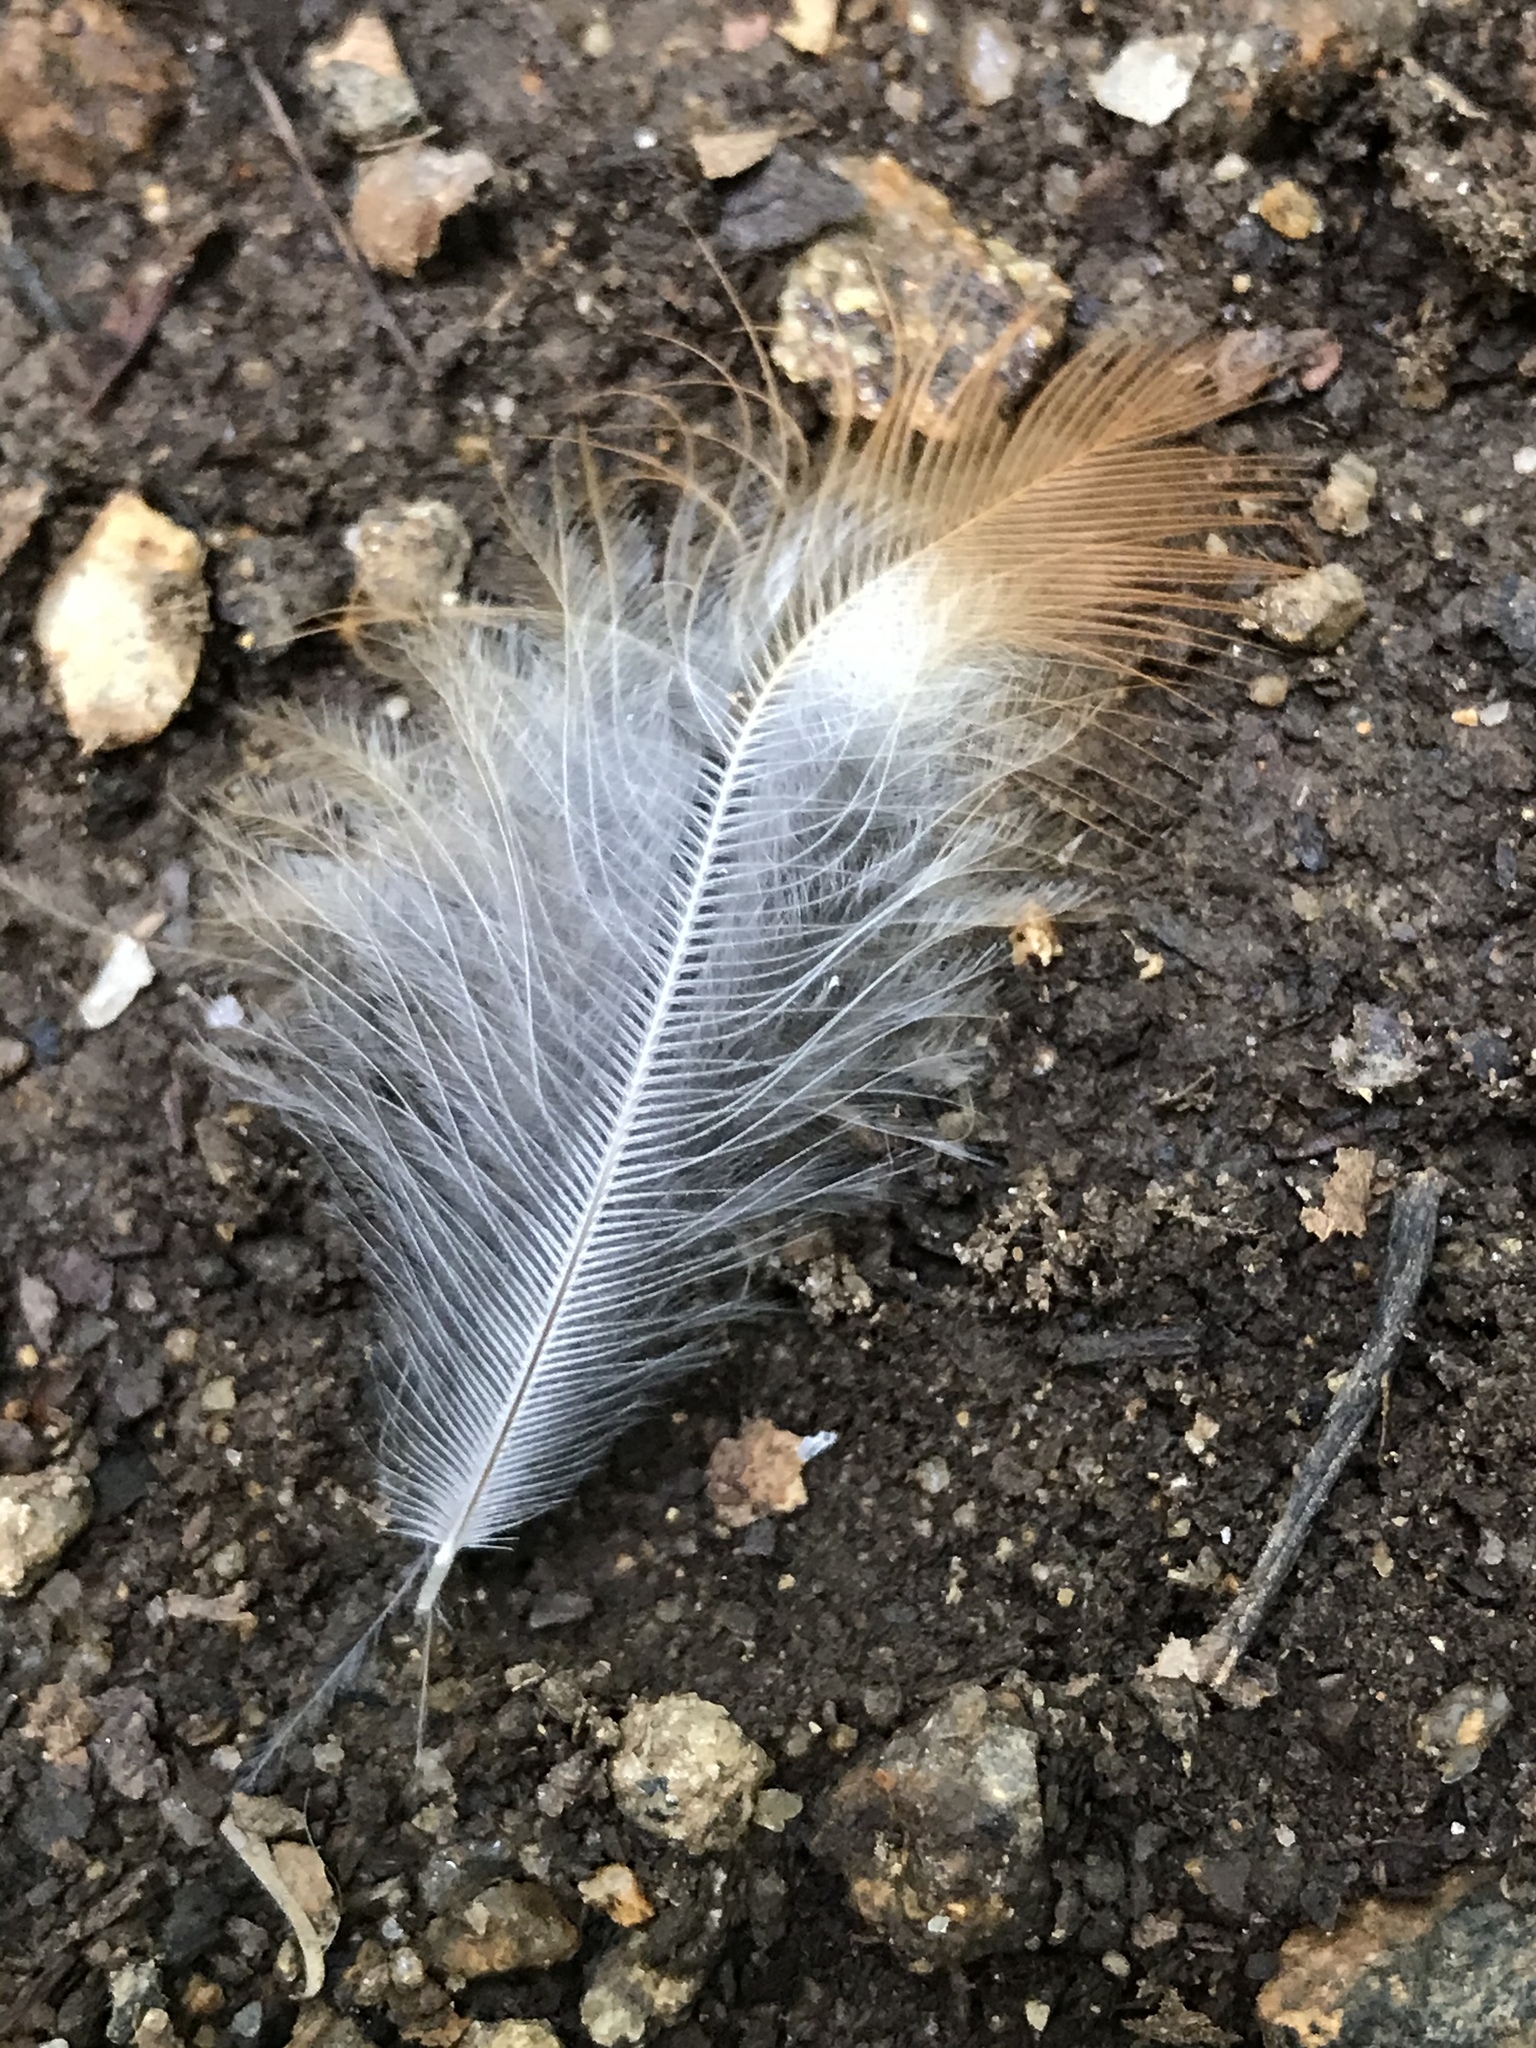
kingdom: Animalia
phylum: Chordata
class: Aves
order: Passeriformes
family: Turdidae
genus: Turdus
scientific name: Turdus migratorius
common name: American robin
